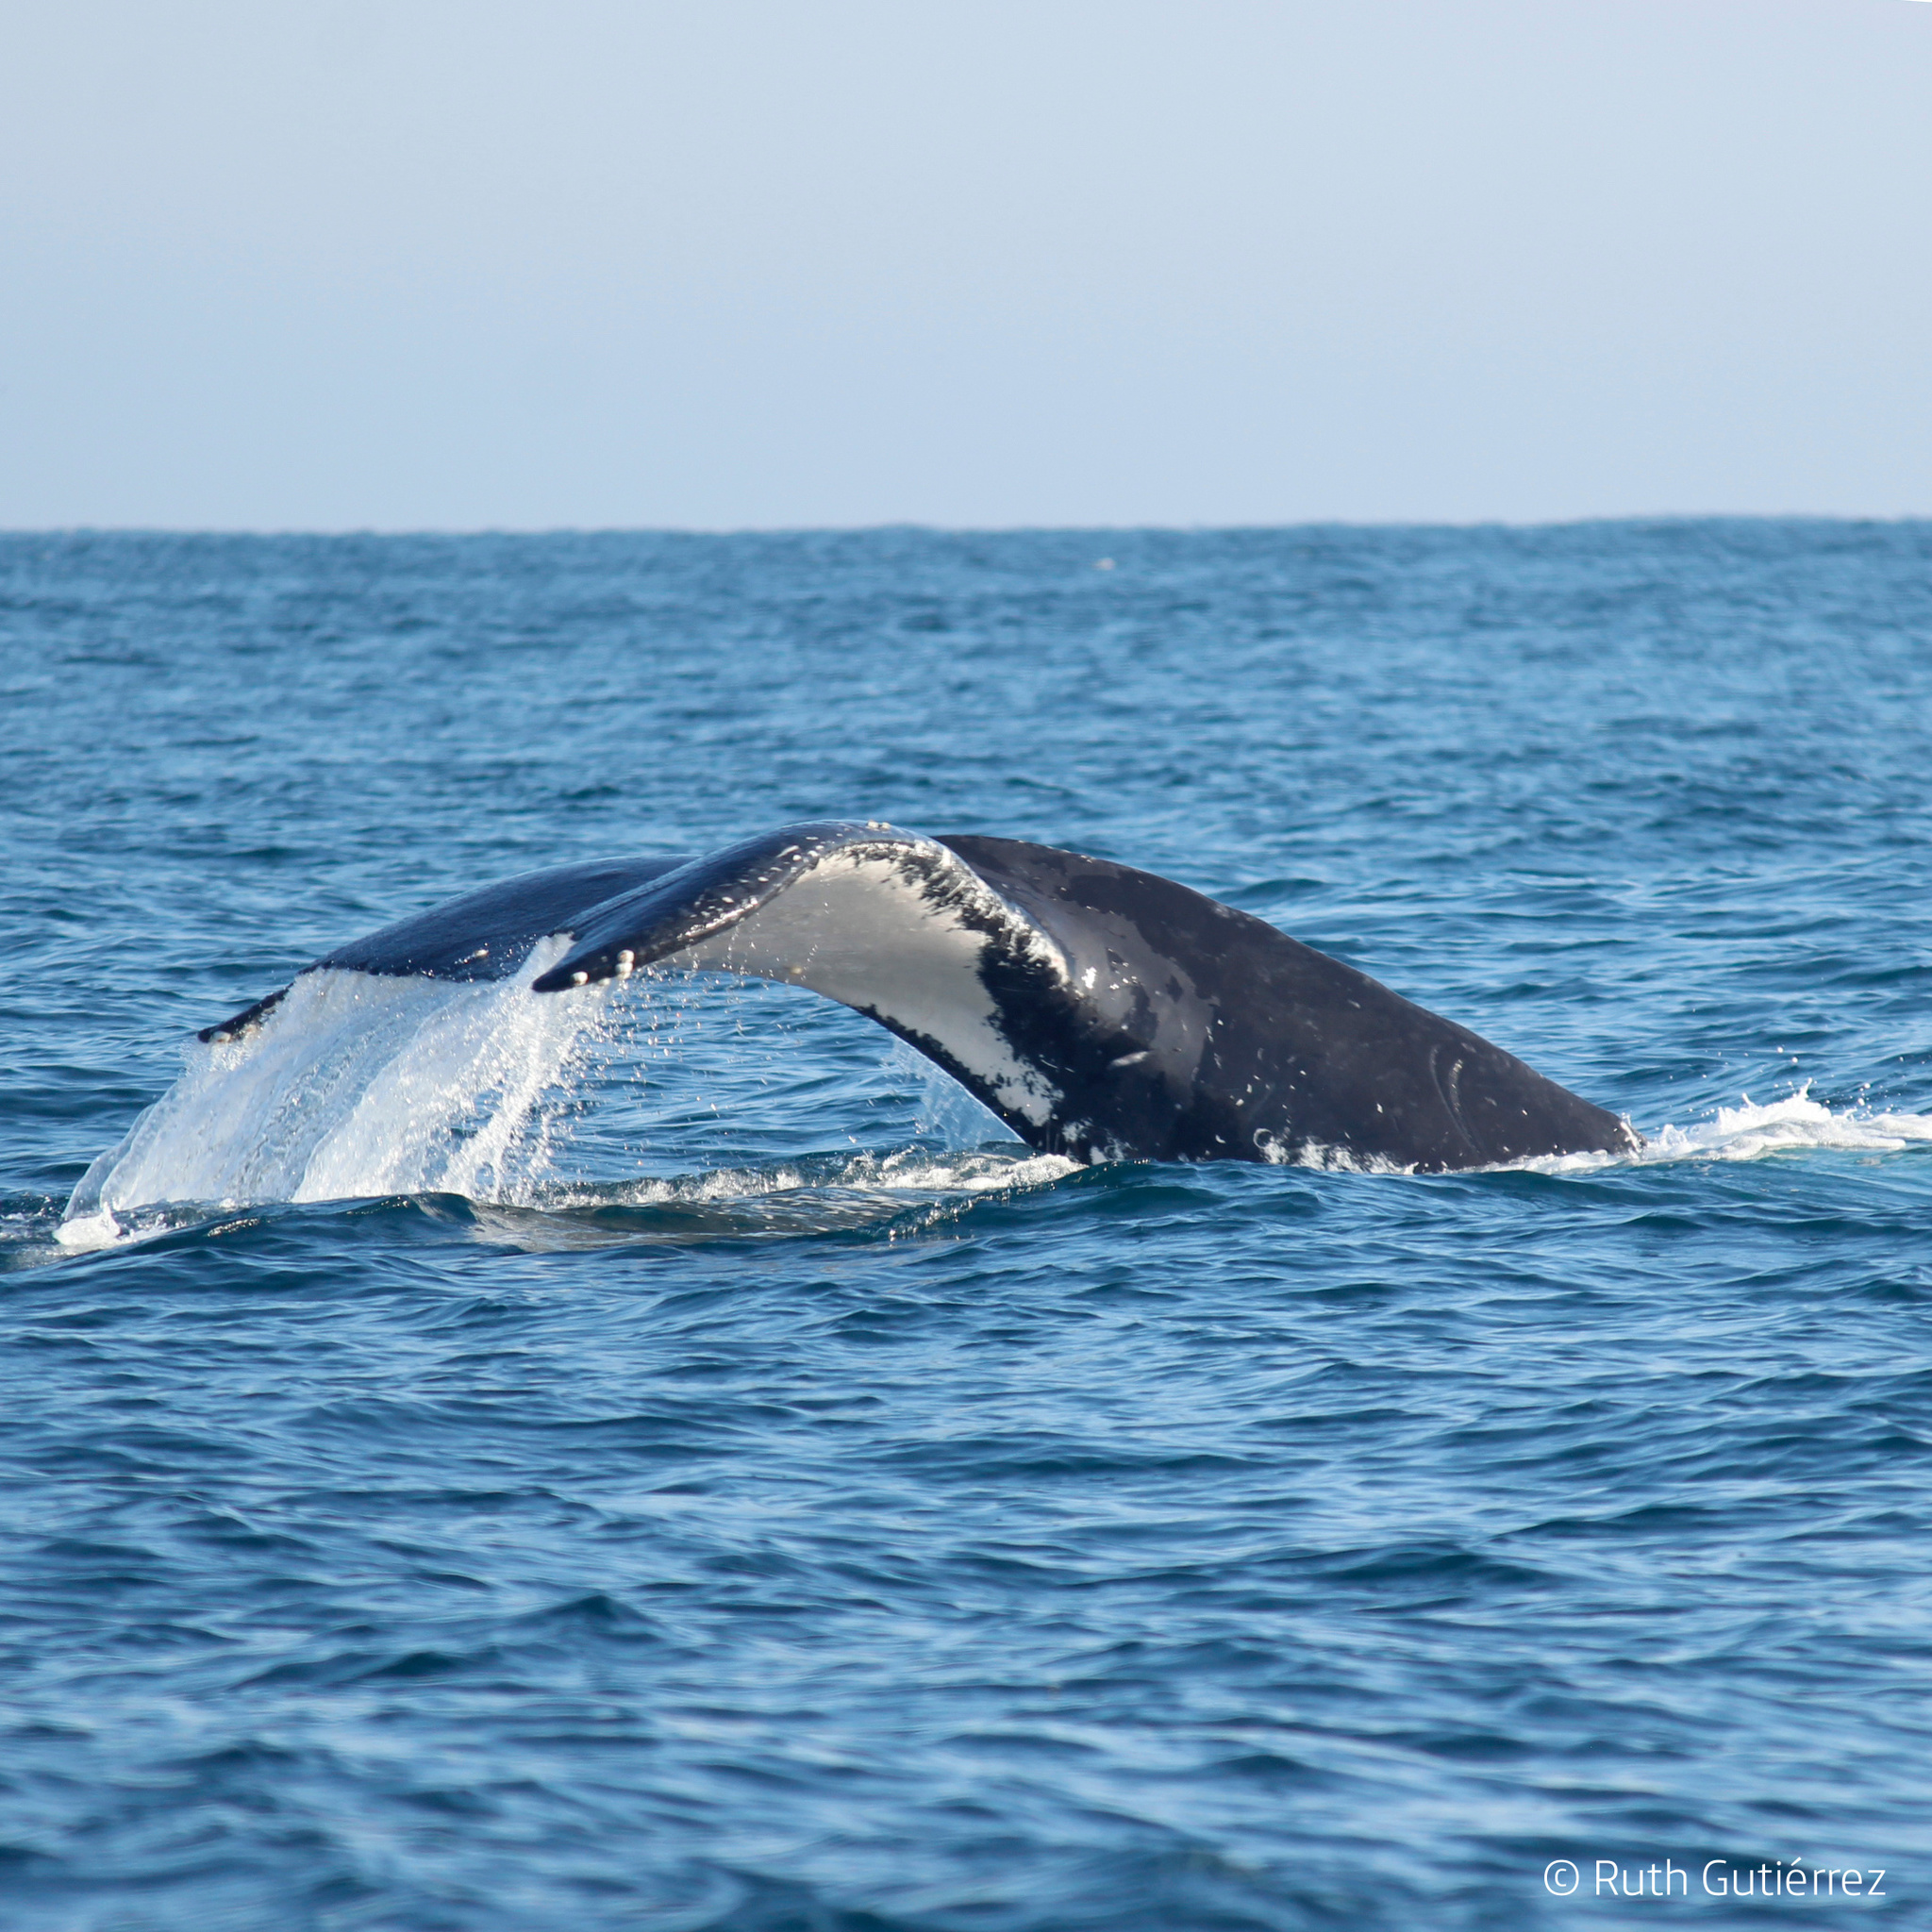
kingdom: Animalia
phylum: Chordata
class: Mammalia
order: Cetacea
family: Balaenopteridae
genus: Megaptera
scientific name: Megaptera novaeangliae
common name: Humpback whale
